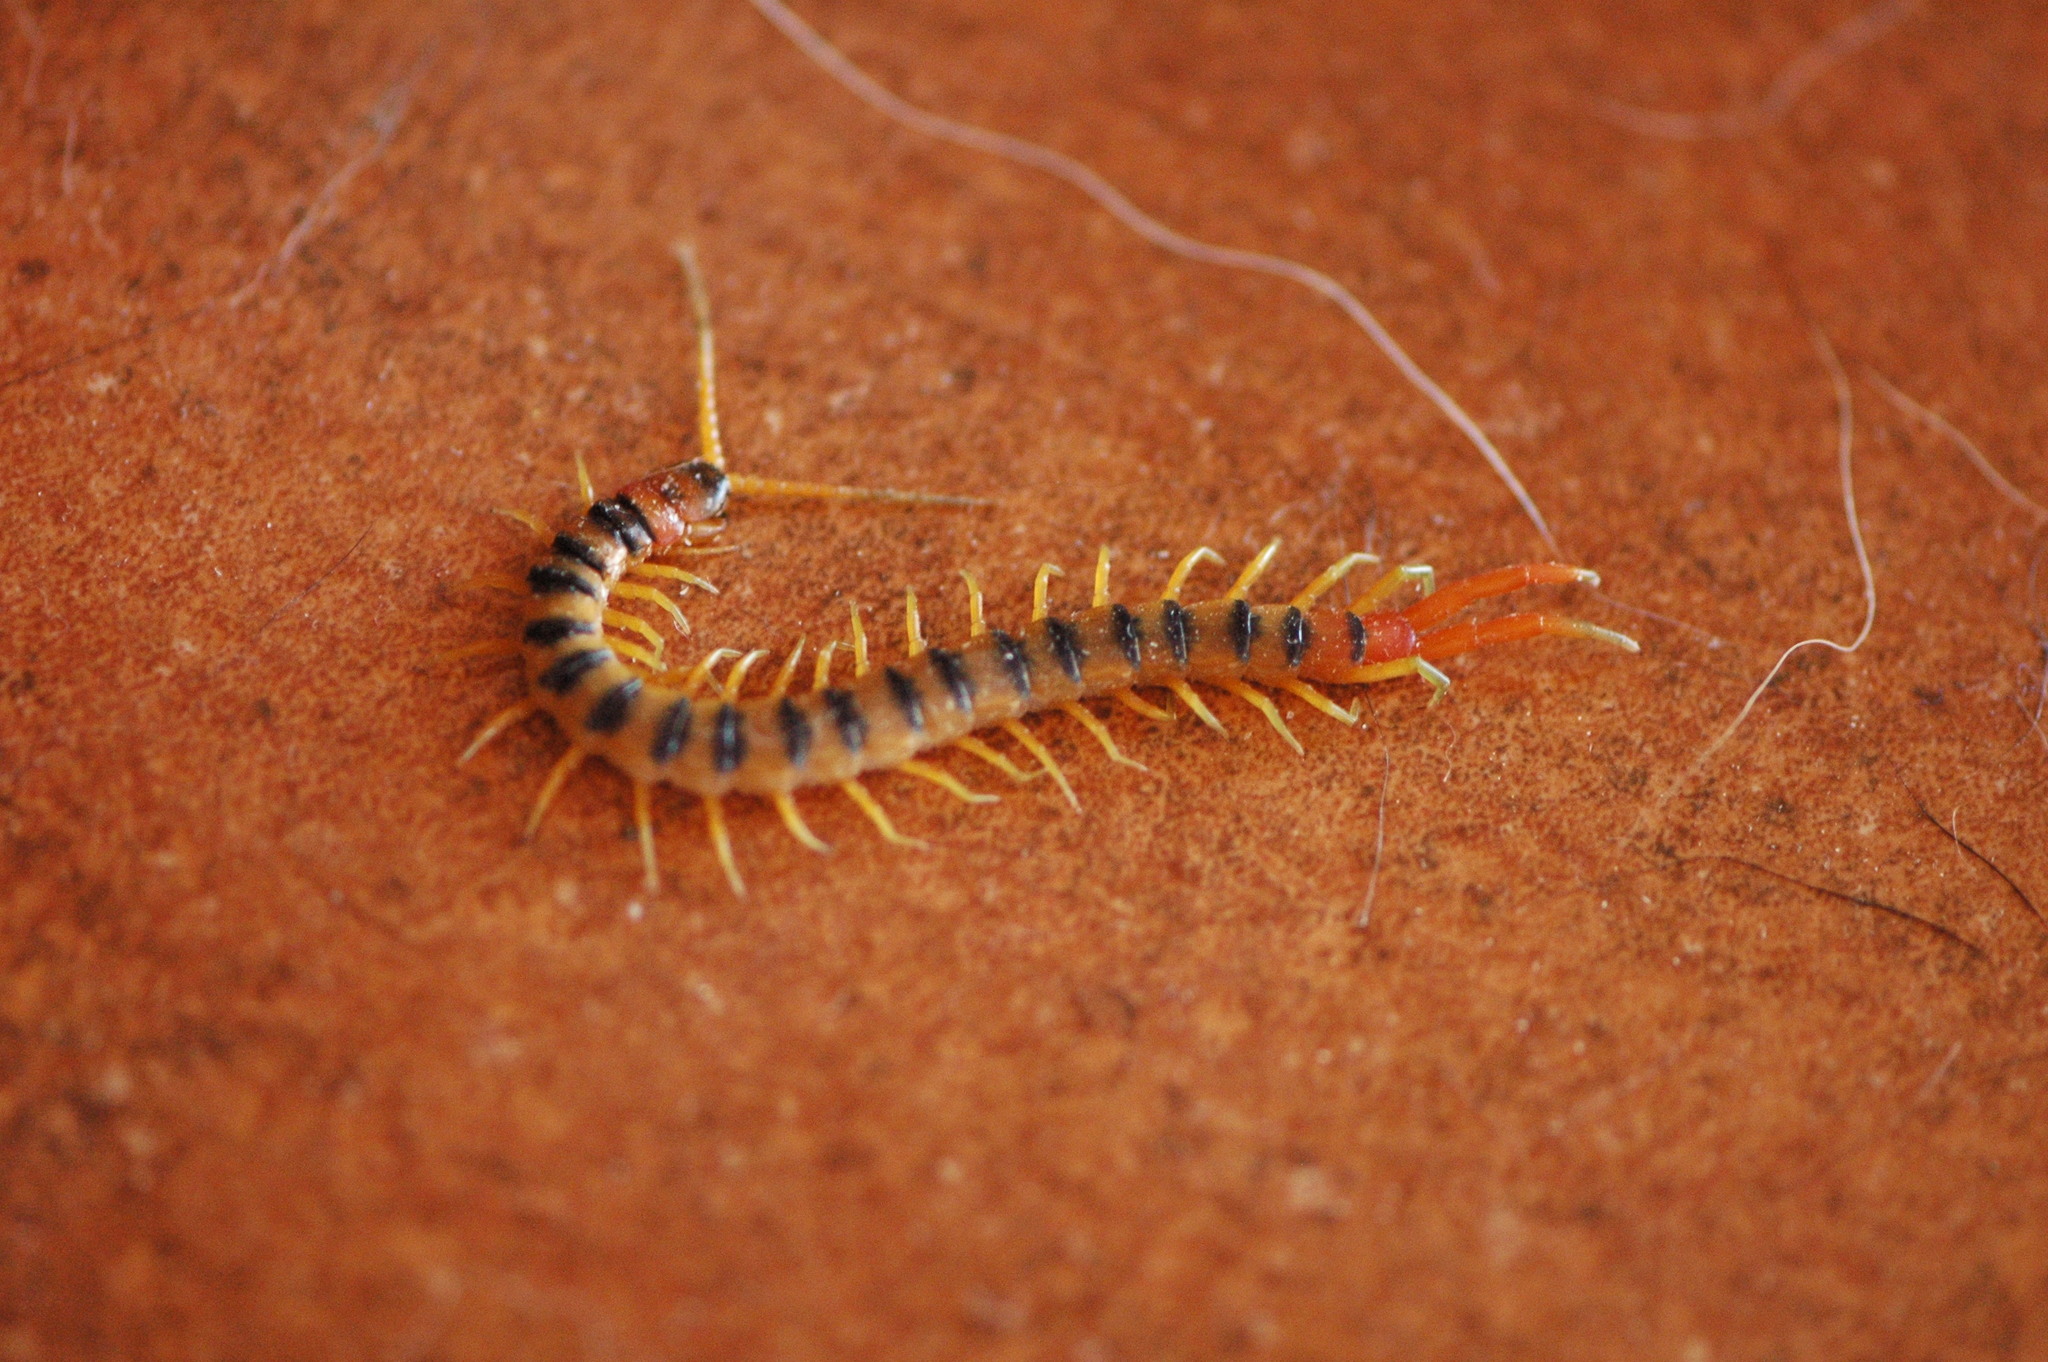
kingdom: Animalia
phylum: Arthropoda
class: Chilopoda
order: Scolopendromorpha
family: Scolopendridae
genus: Scolopendra
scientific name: Scolopendra cingulata
